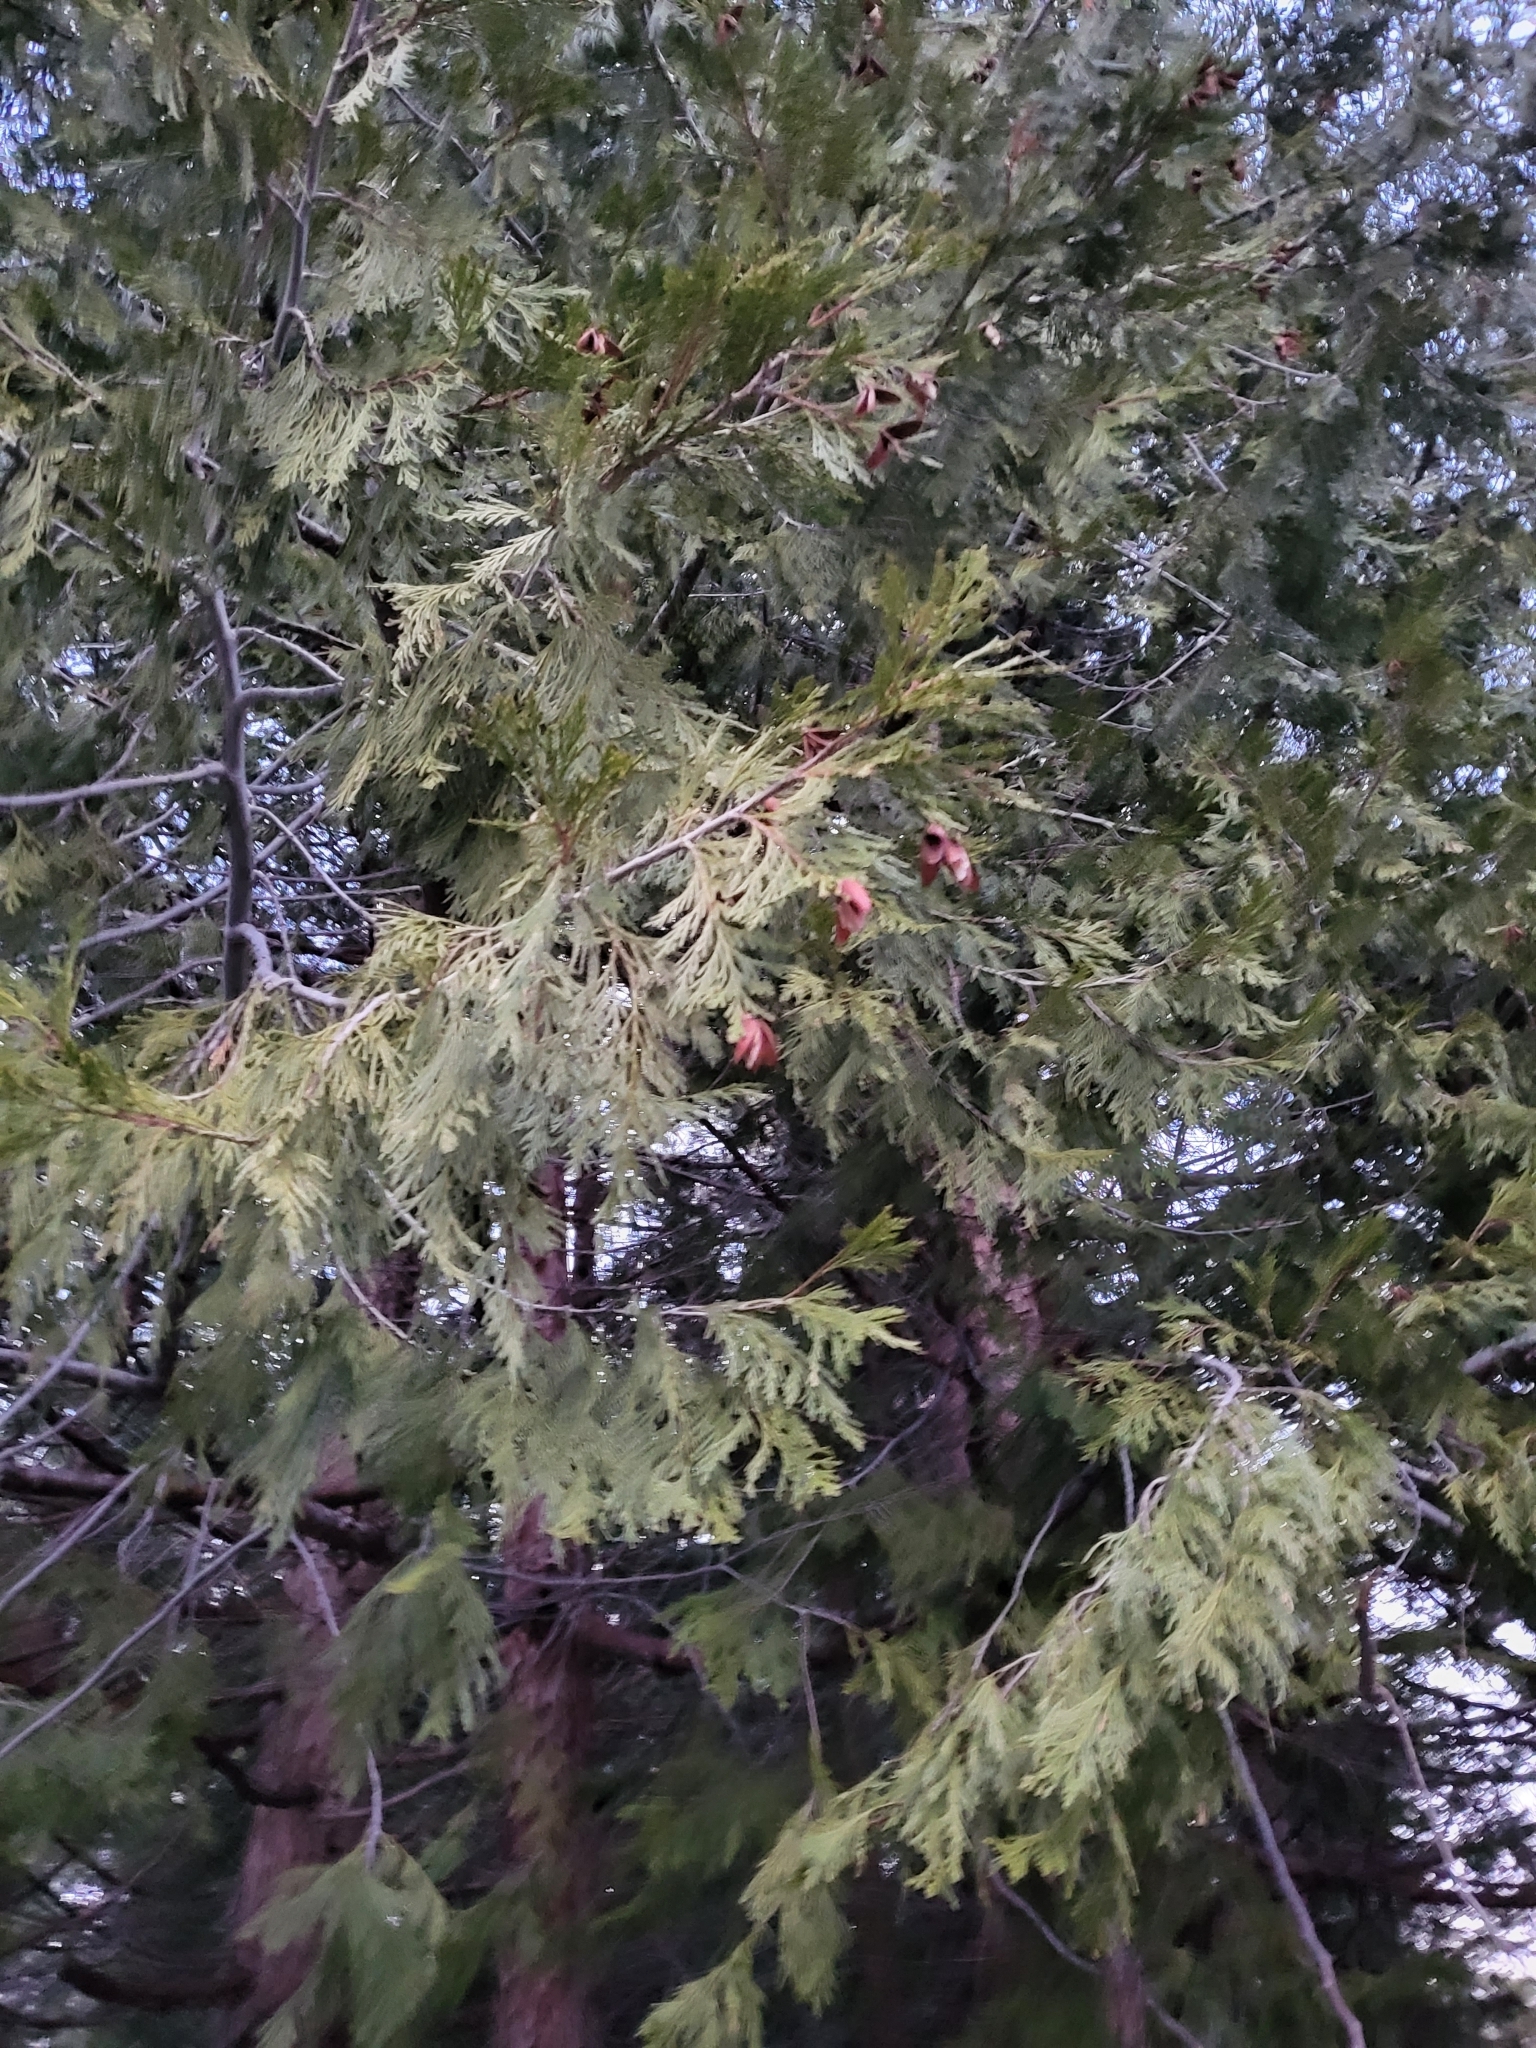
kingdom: Plantae
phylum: Tracheophyta
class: Pinopsida
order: Pinales
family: Cupressaceae
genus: Calocedrus
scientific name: Calocedrus decurrens
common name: Californian incense-cedar
